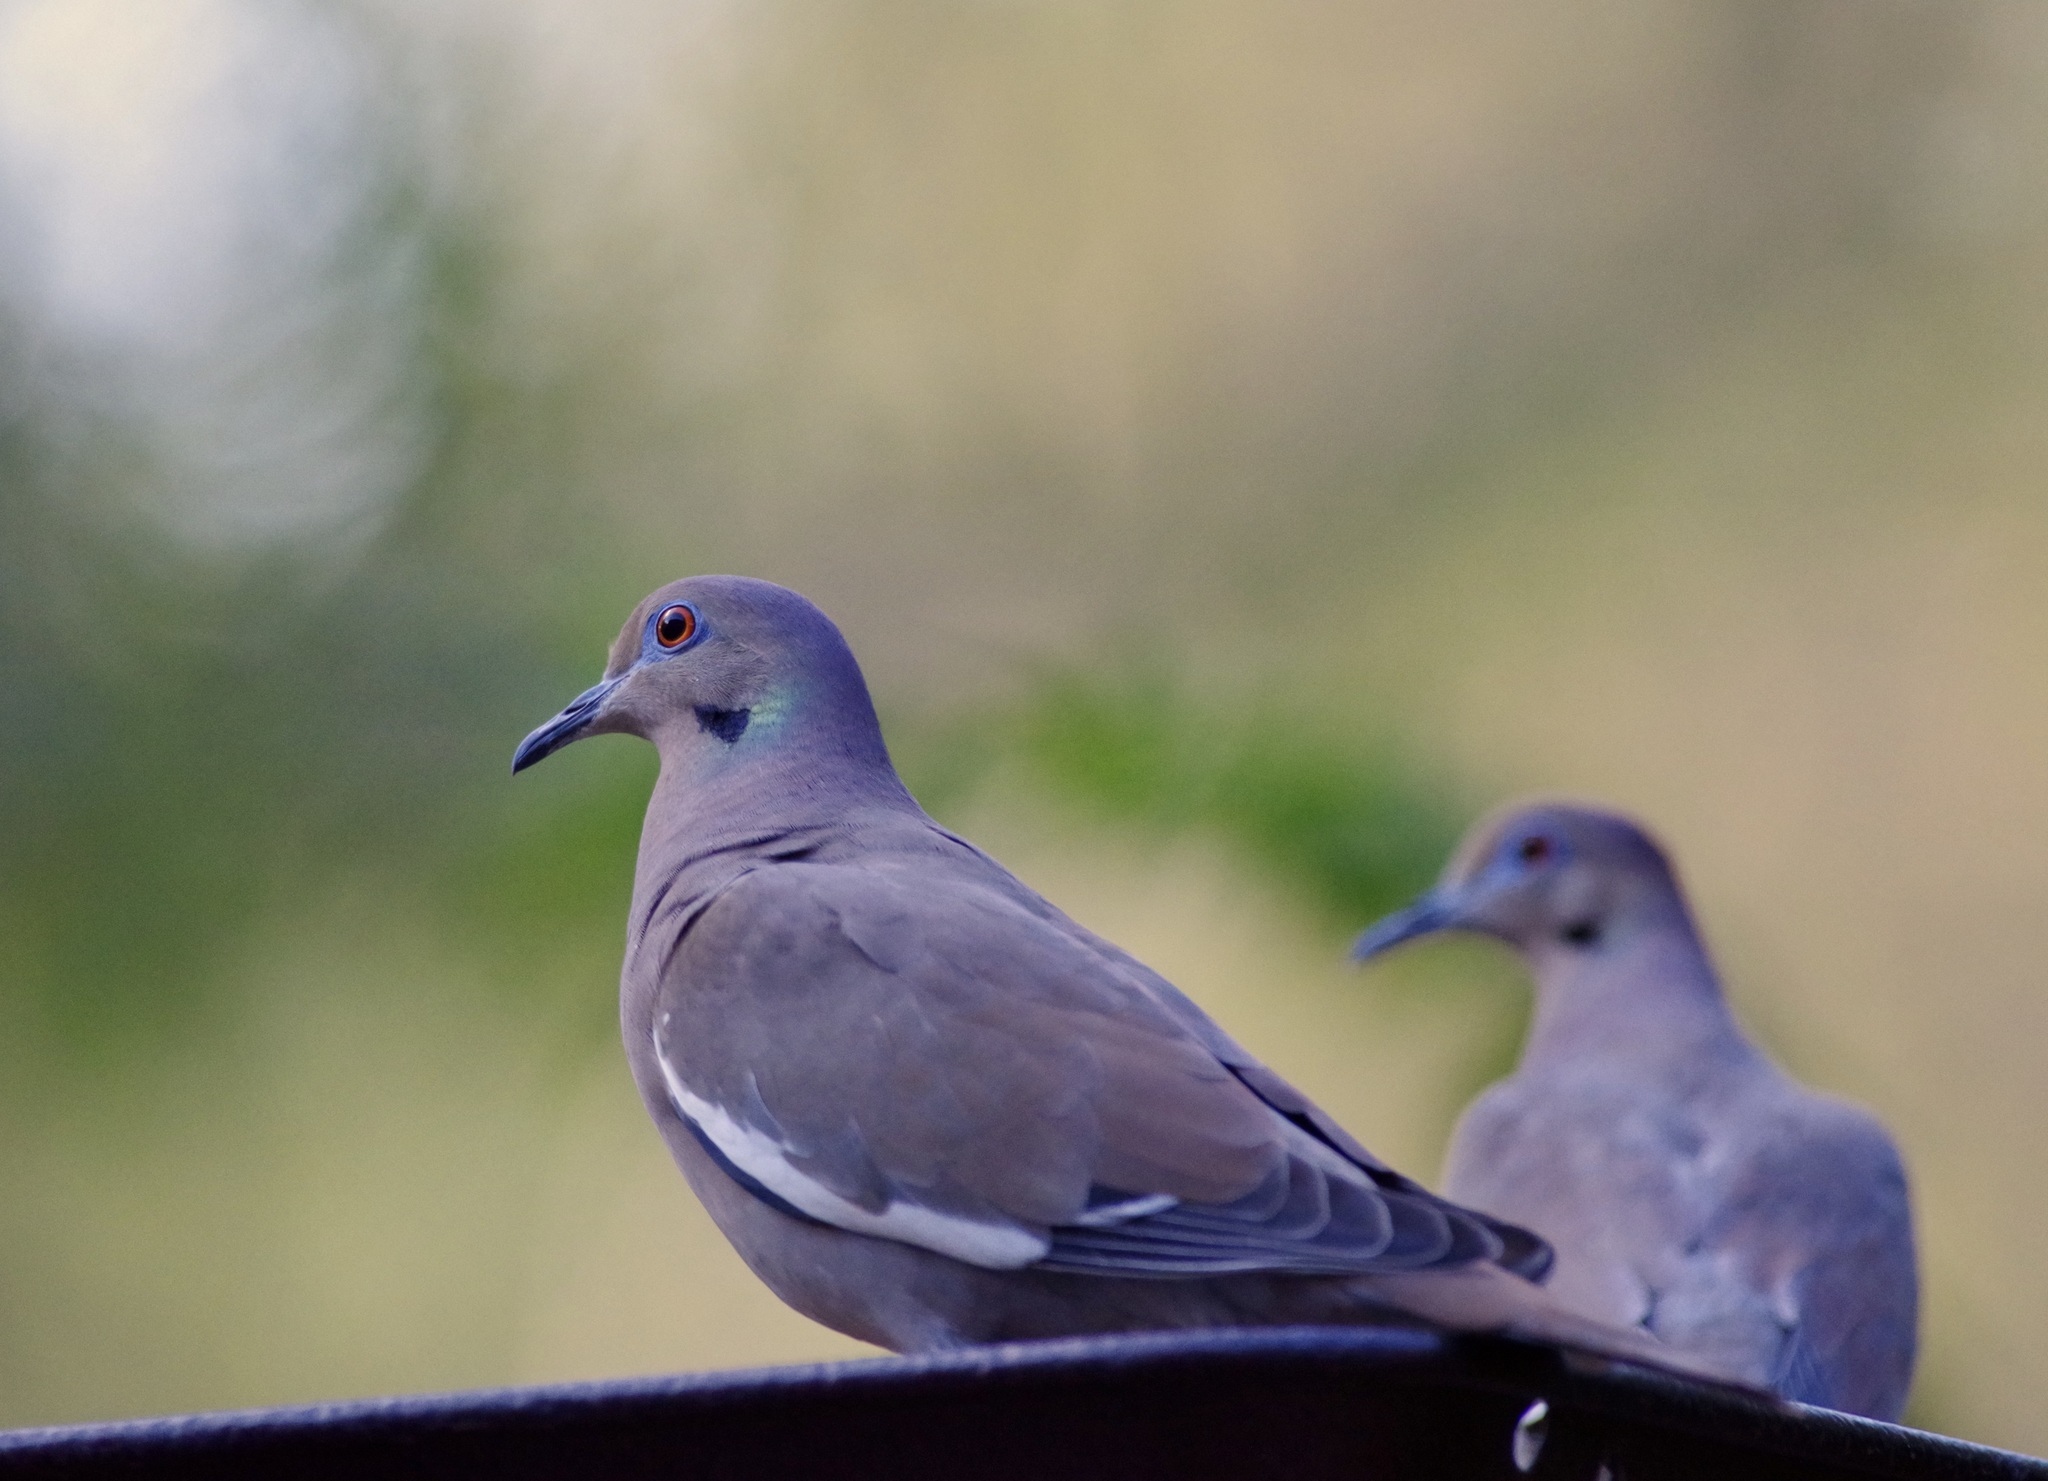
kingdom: Animalia
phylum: Chordata
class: Aves
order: Columbiformes
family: Columbidae
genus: Zenaida
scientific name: Zenaida asiatica
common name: White-winged dove
